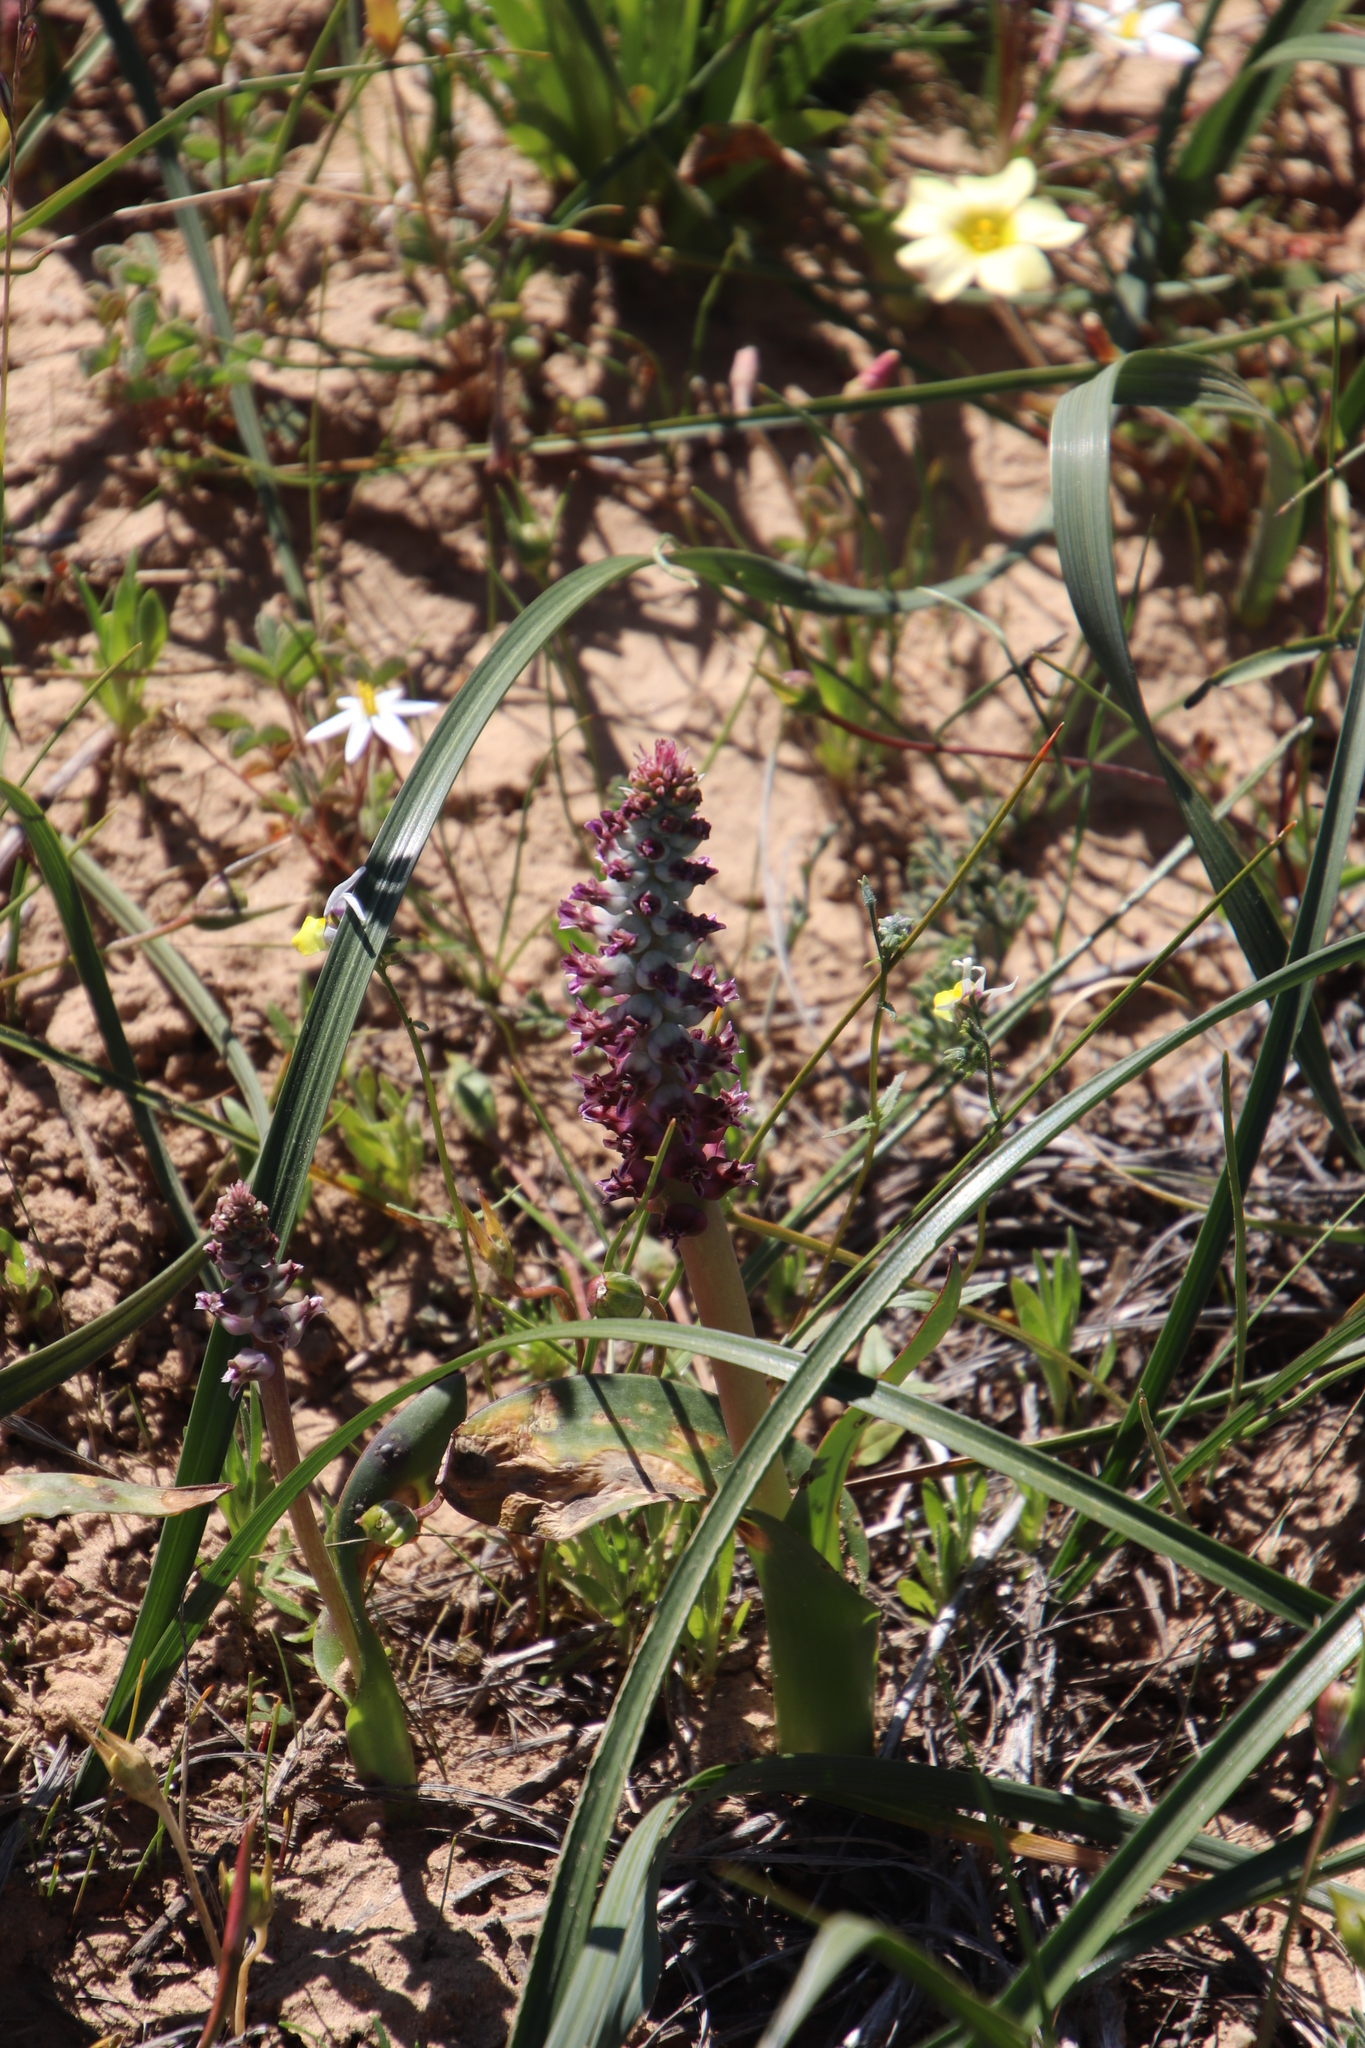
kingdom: Plantae
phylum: Tracheophyta
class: Liliopsida
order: Asparagales
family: Asparagaceae
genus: Lachenalia
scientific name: Lachenalia elegans
